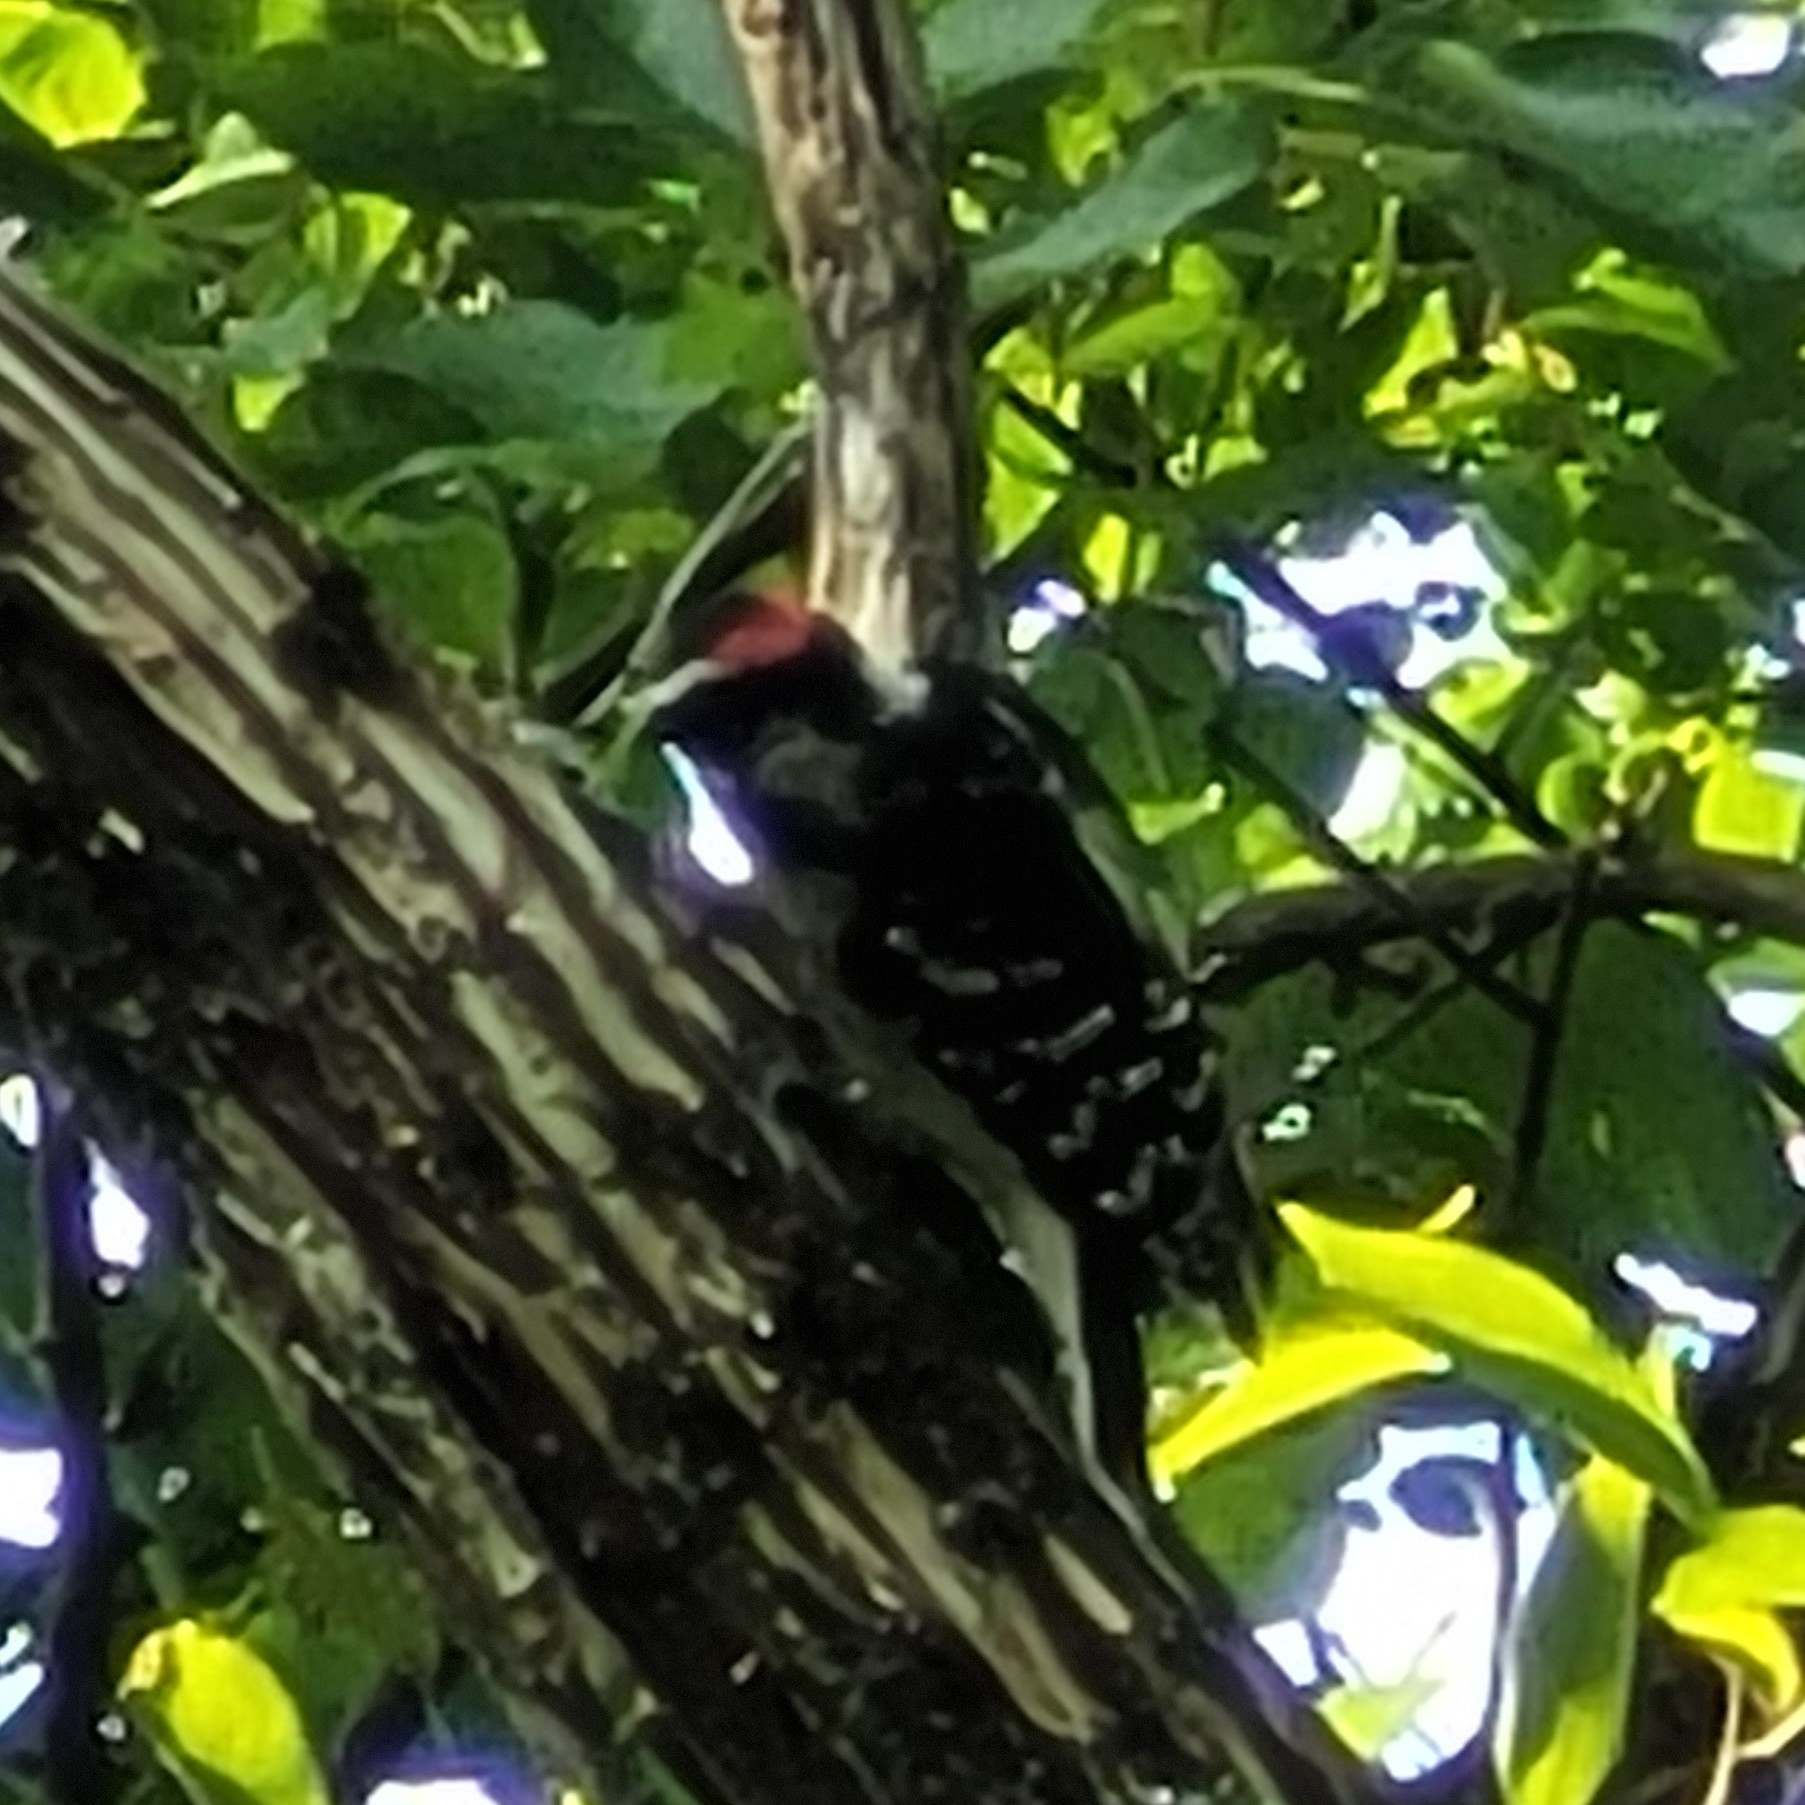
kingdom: Animalia
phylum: Chordata
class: Aves
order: Piciformes
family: Picidae
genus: Dryobates
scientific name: Dryobates pubescens
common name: Downy woodpecker
